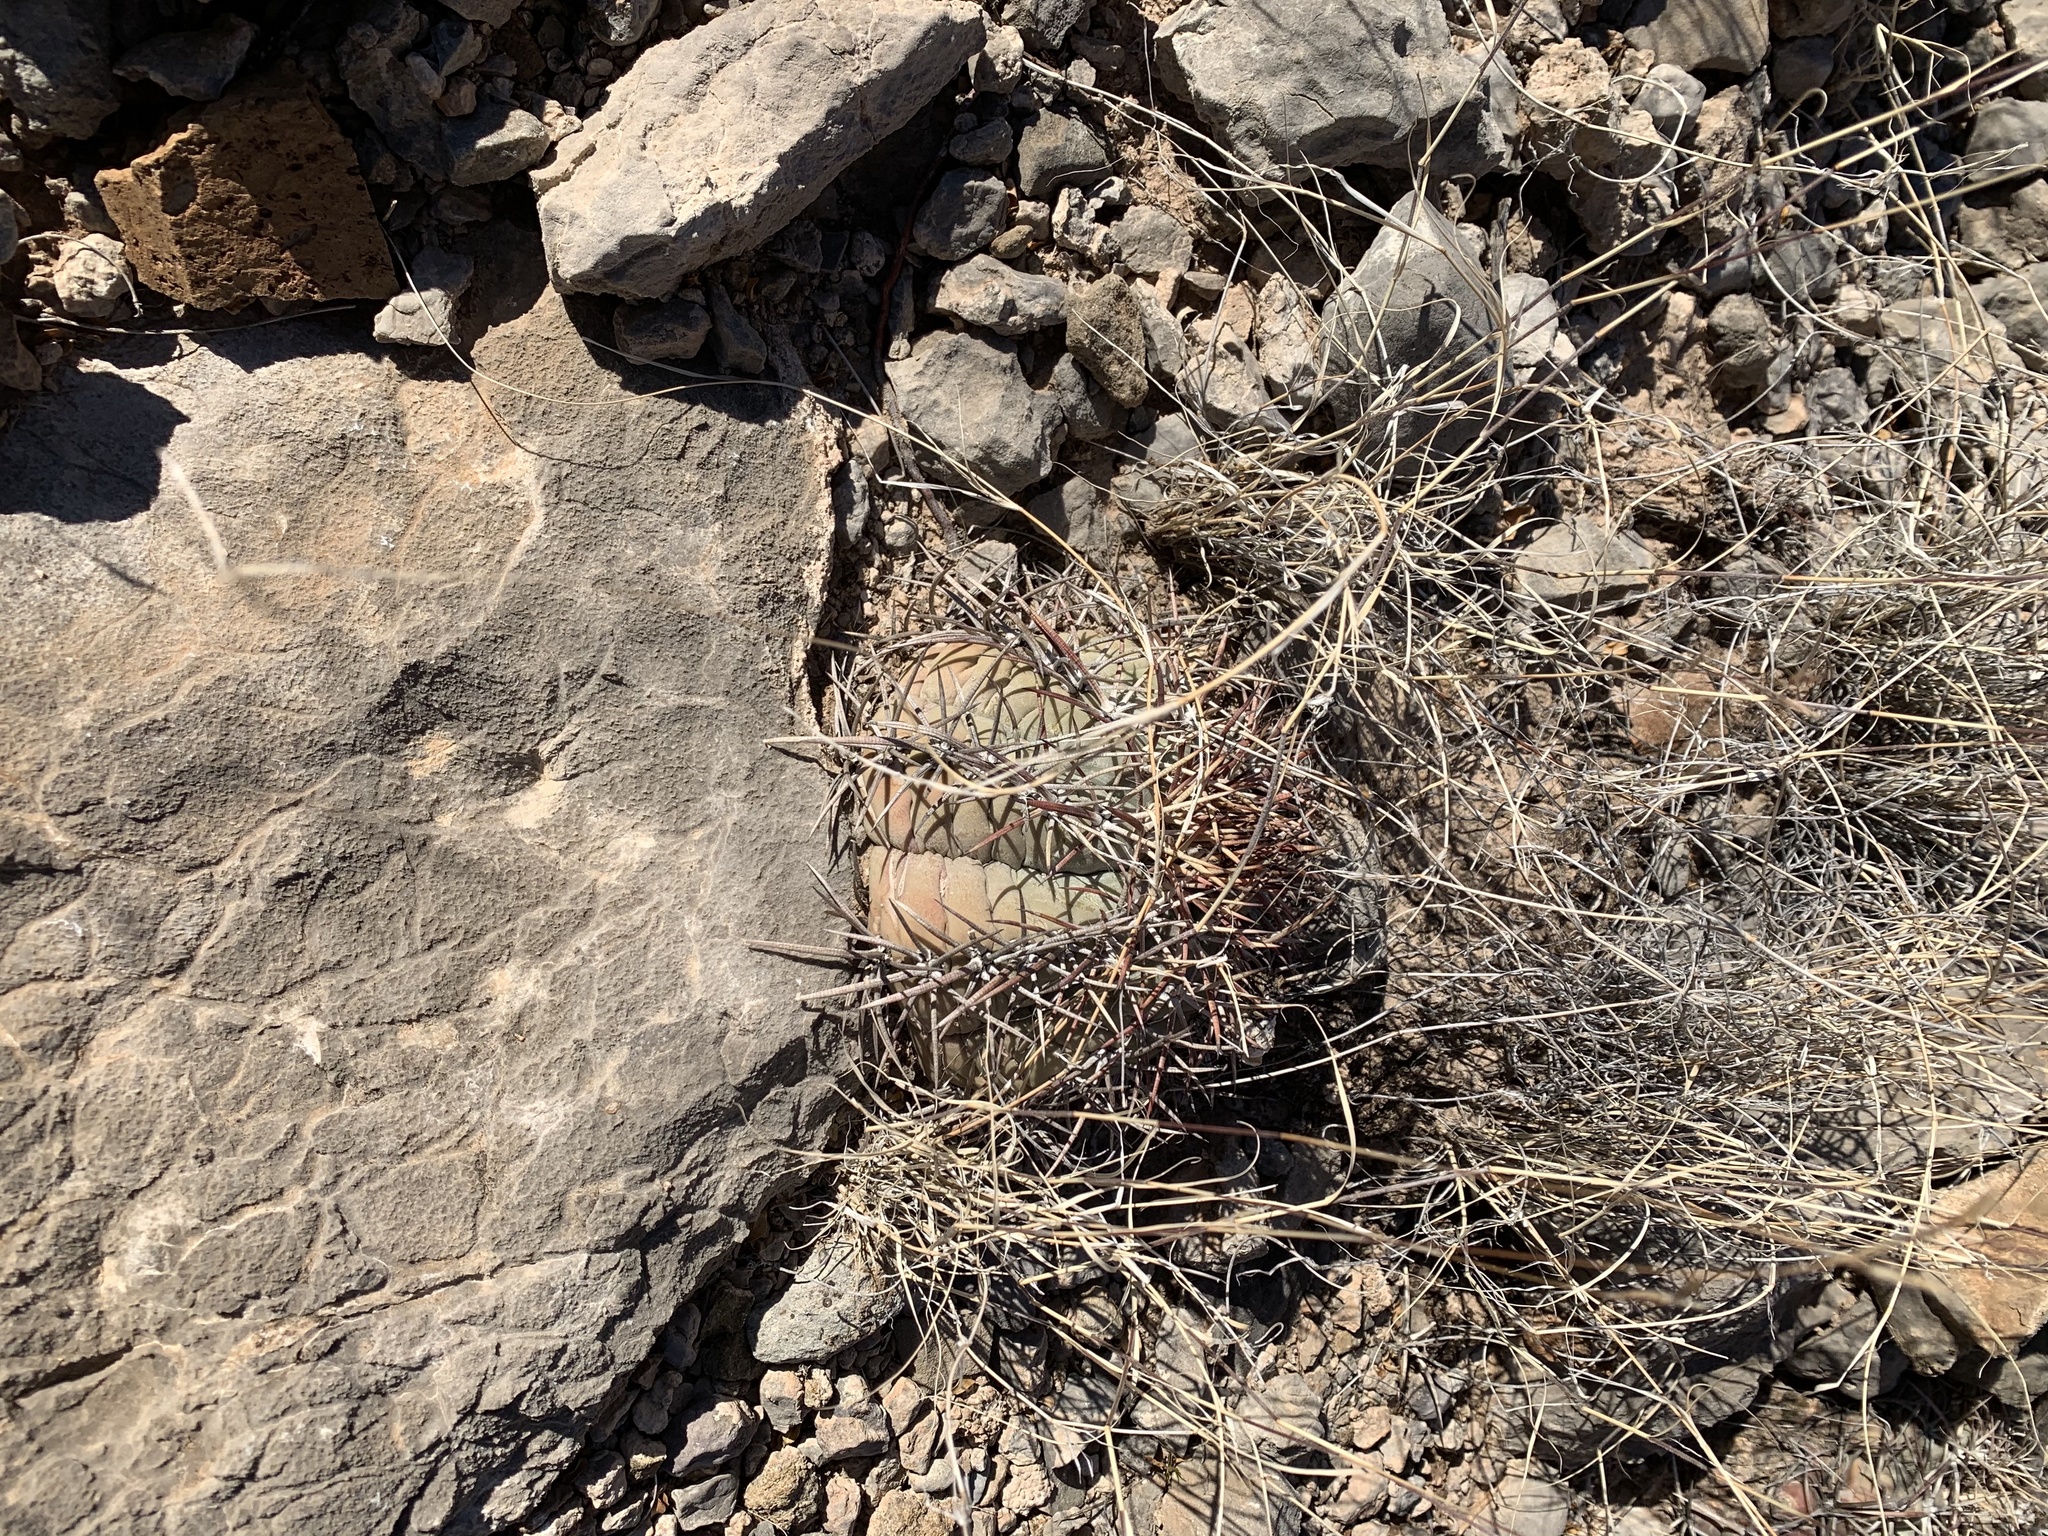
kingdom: Plantae
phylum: Tracheophyta
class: Magnoliopsida
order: Caryophyllales
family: Cactaceae
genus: Echinocactus
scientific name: Echinocactus horizonthalonius
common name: Devilshead
